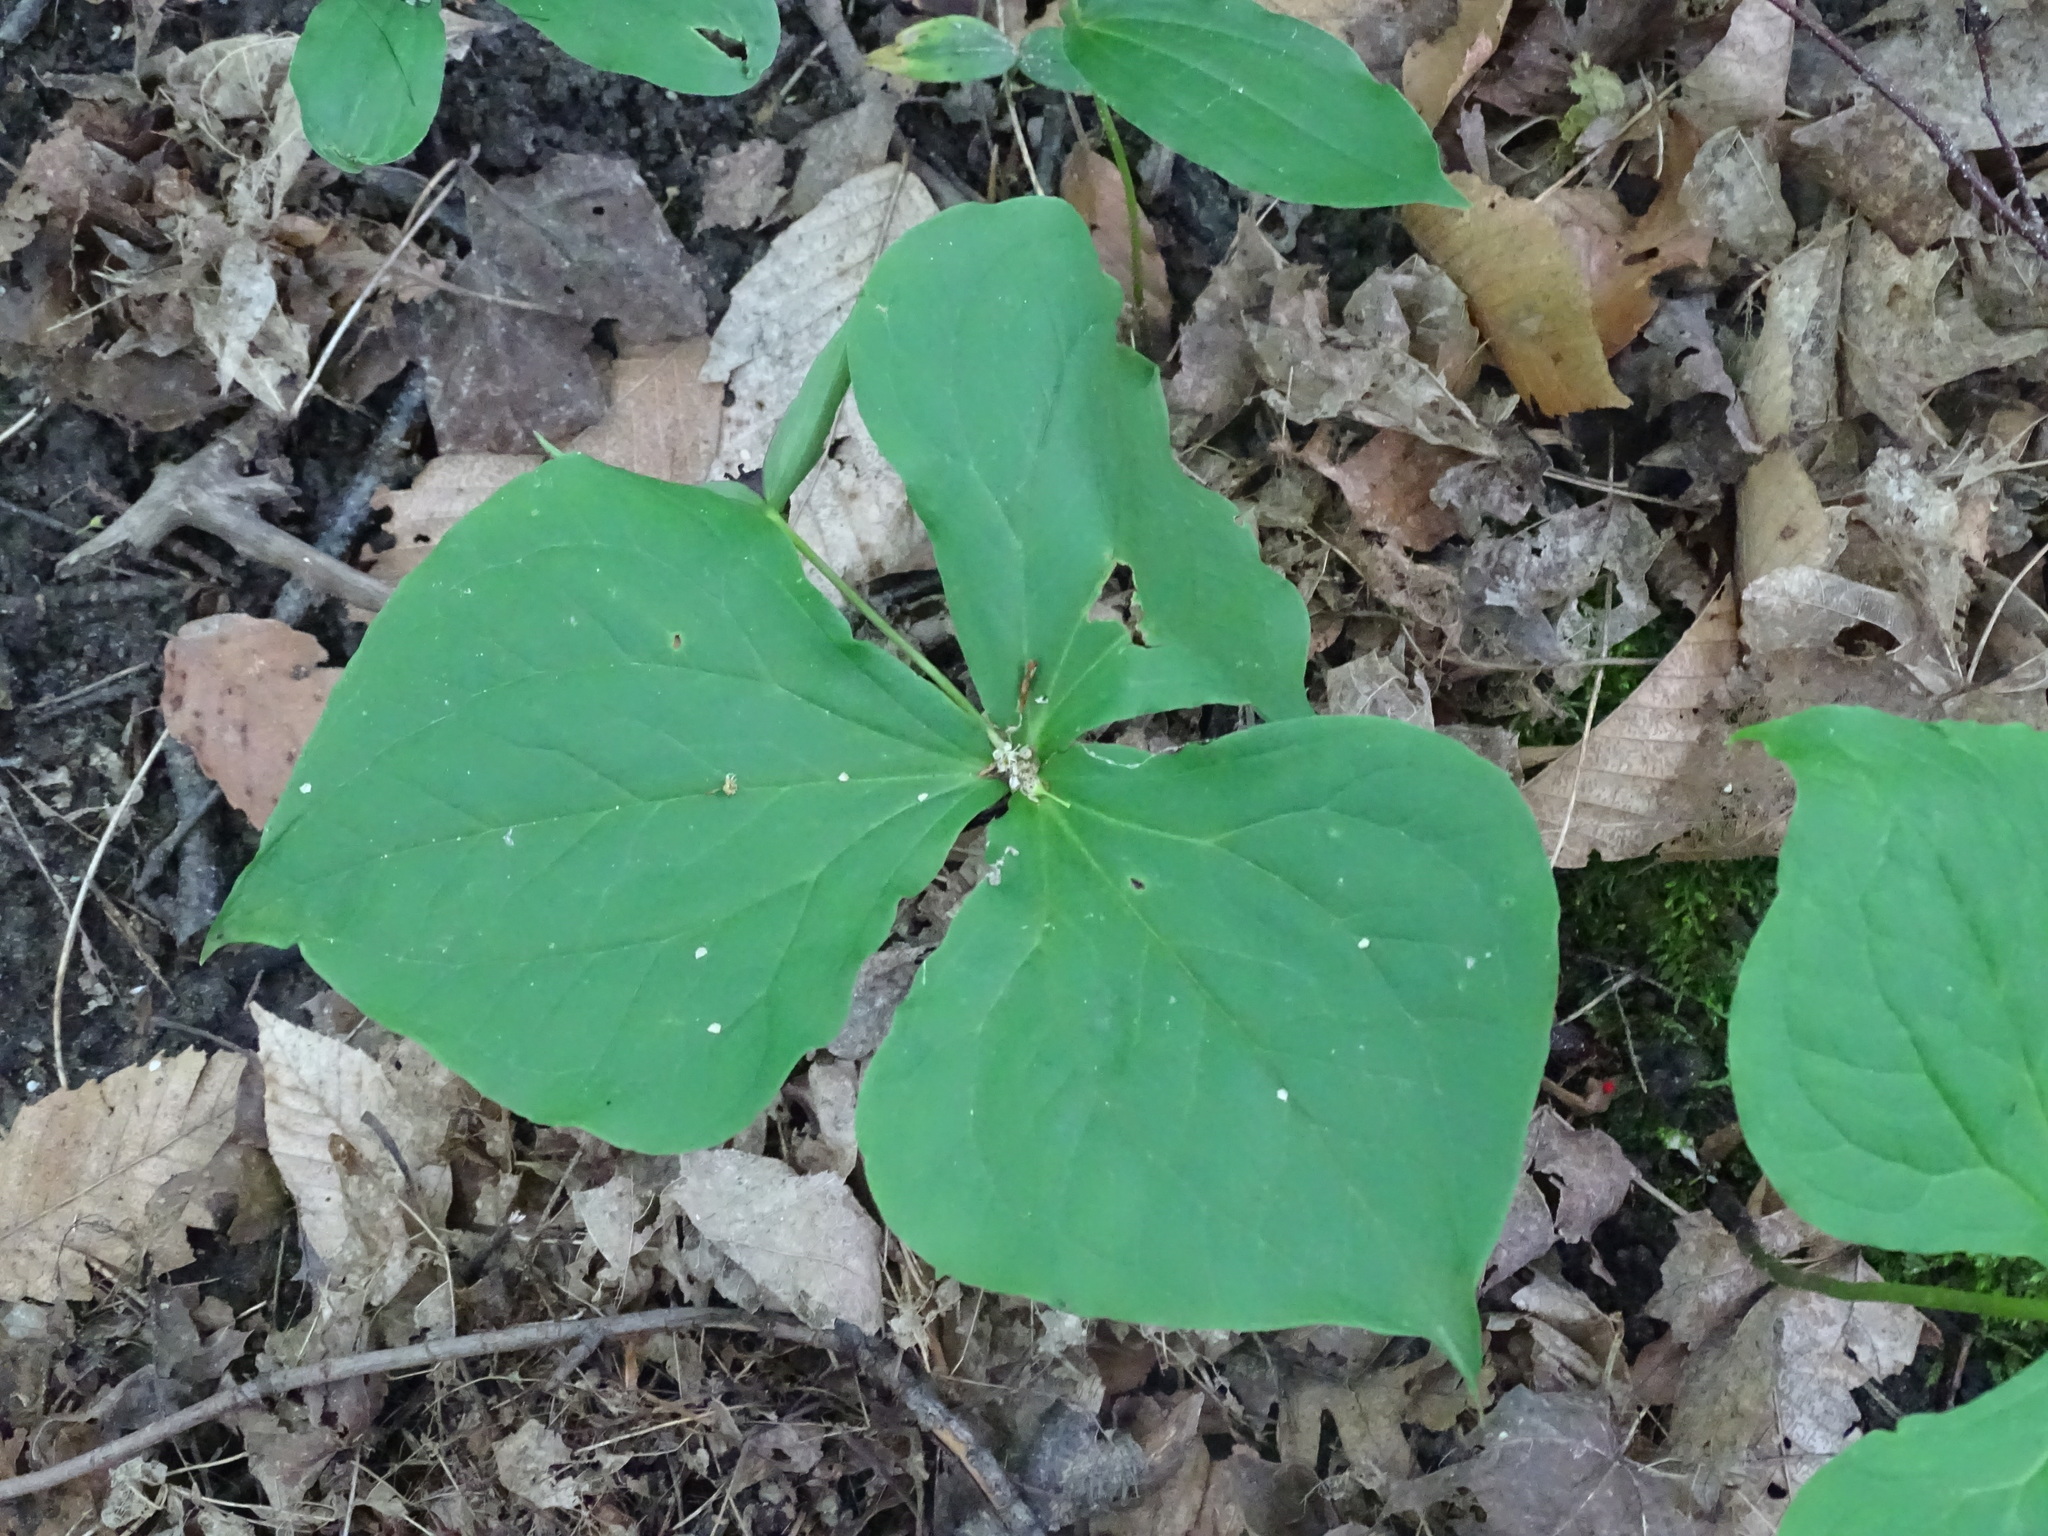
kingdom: Plantae
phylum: Tracheophyta
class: Liliopsida
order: Liliales
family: Melanthiaceae
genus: Trillium
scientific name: Trillium erectum
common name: Purple trillium
